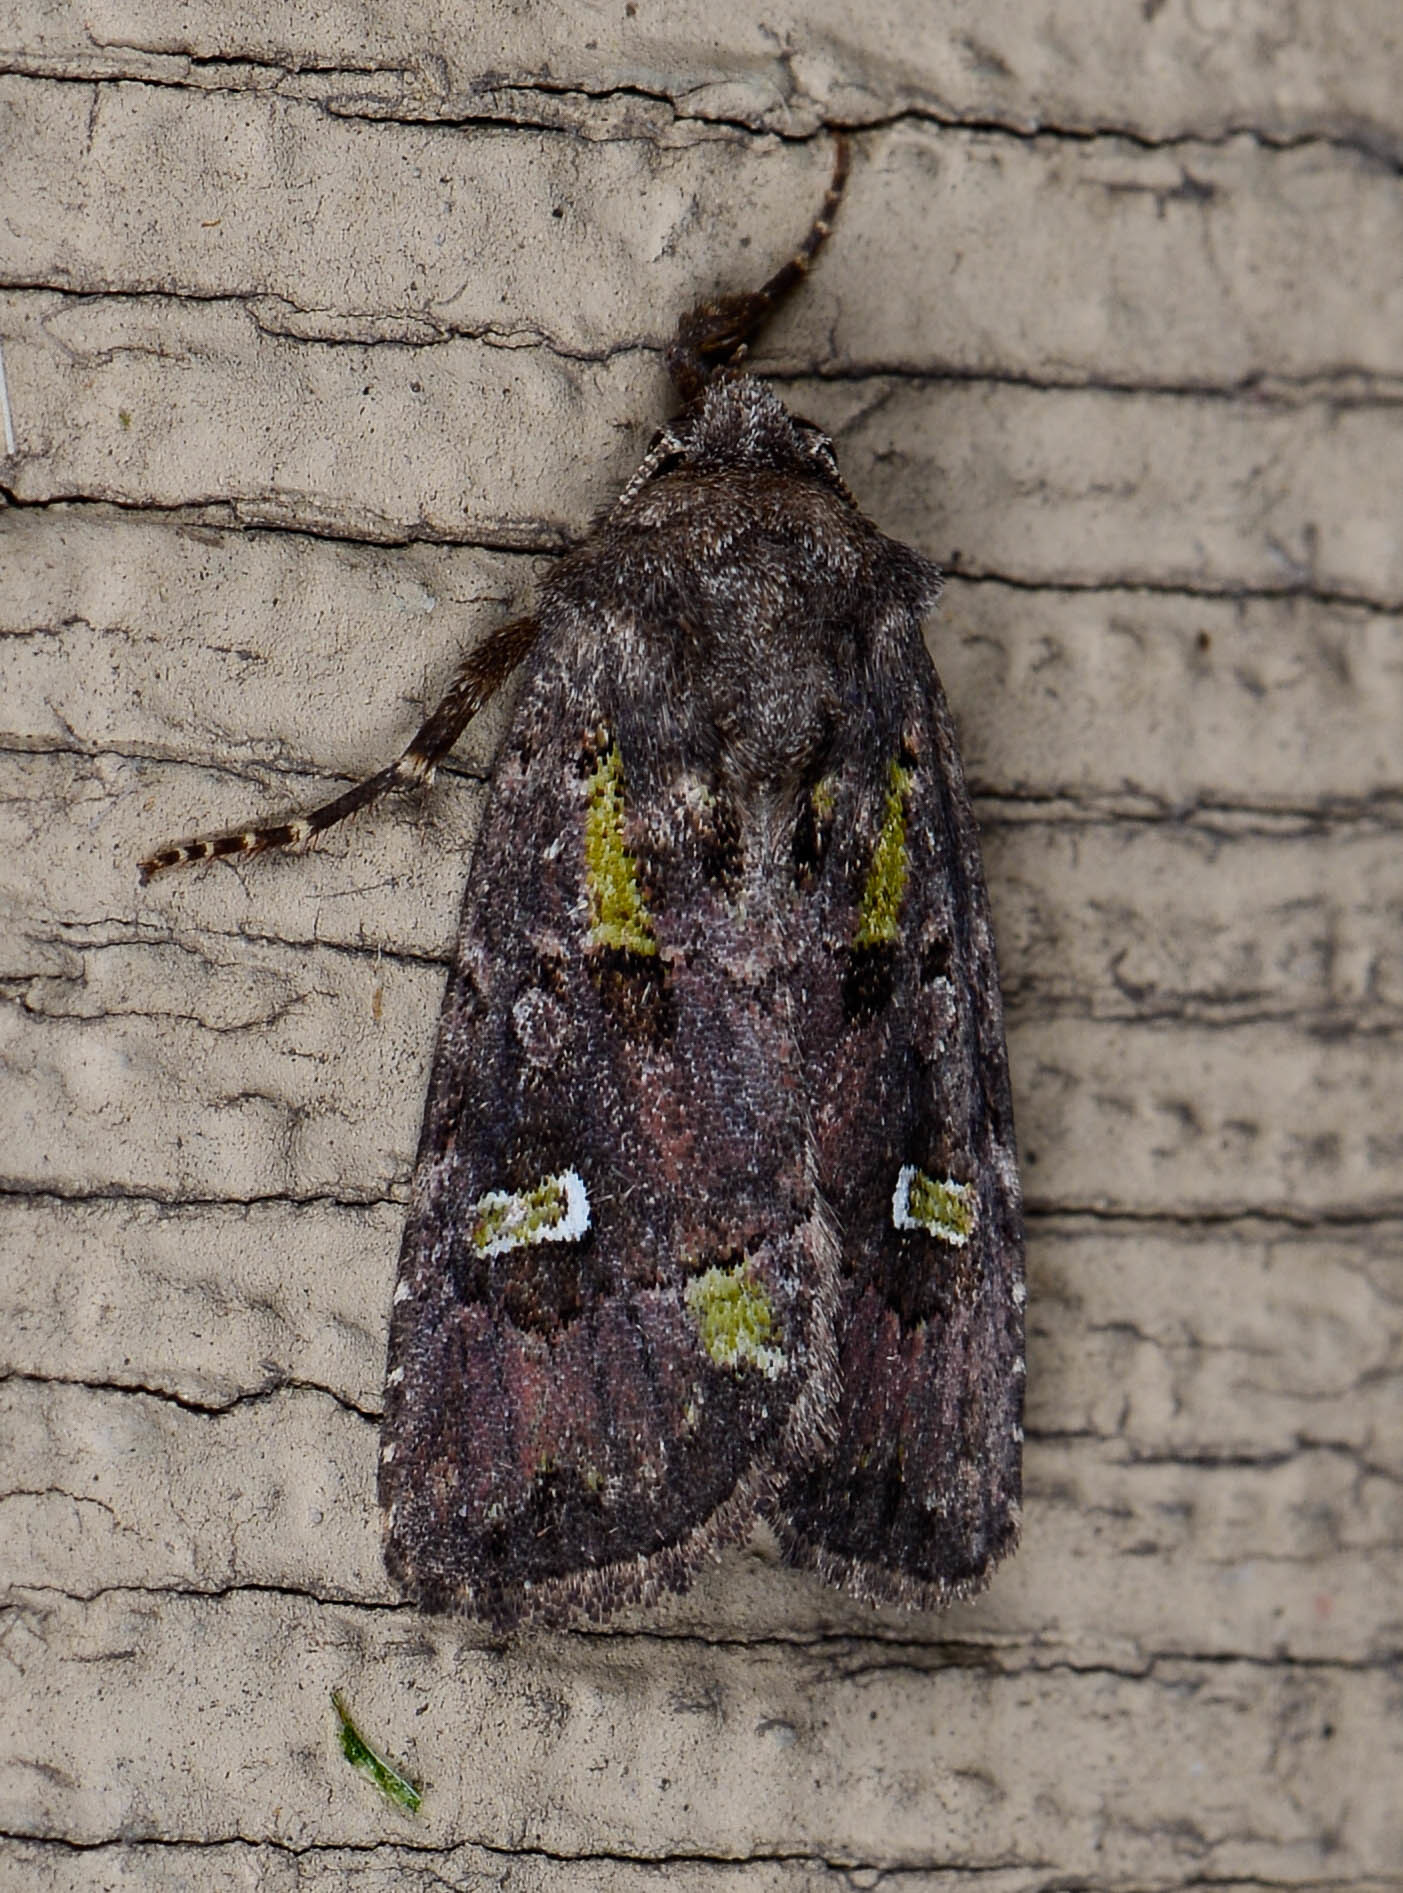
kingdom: Animalia
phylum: Arthropoda
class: Insecta
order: Lepidoptera
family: Noctuidae
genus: Lacinipolia
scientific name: Lacinipolia renigera
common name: Kidney-spotted minor
